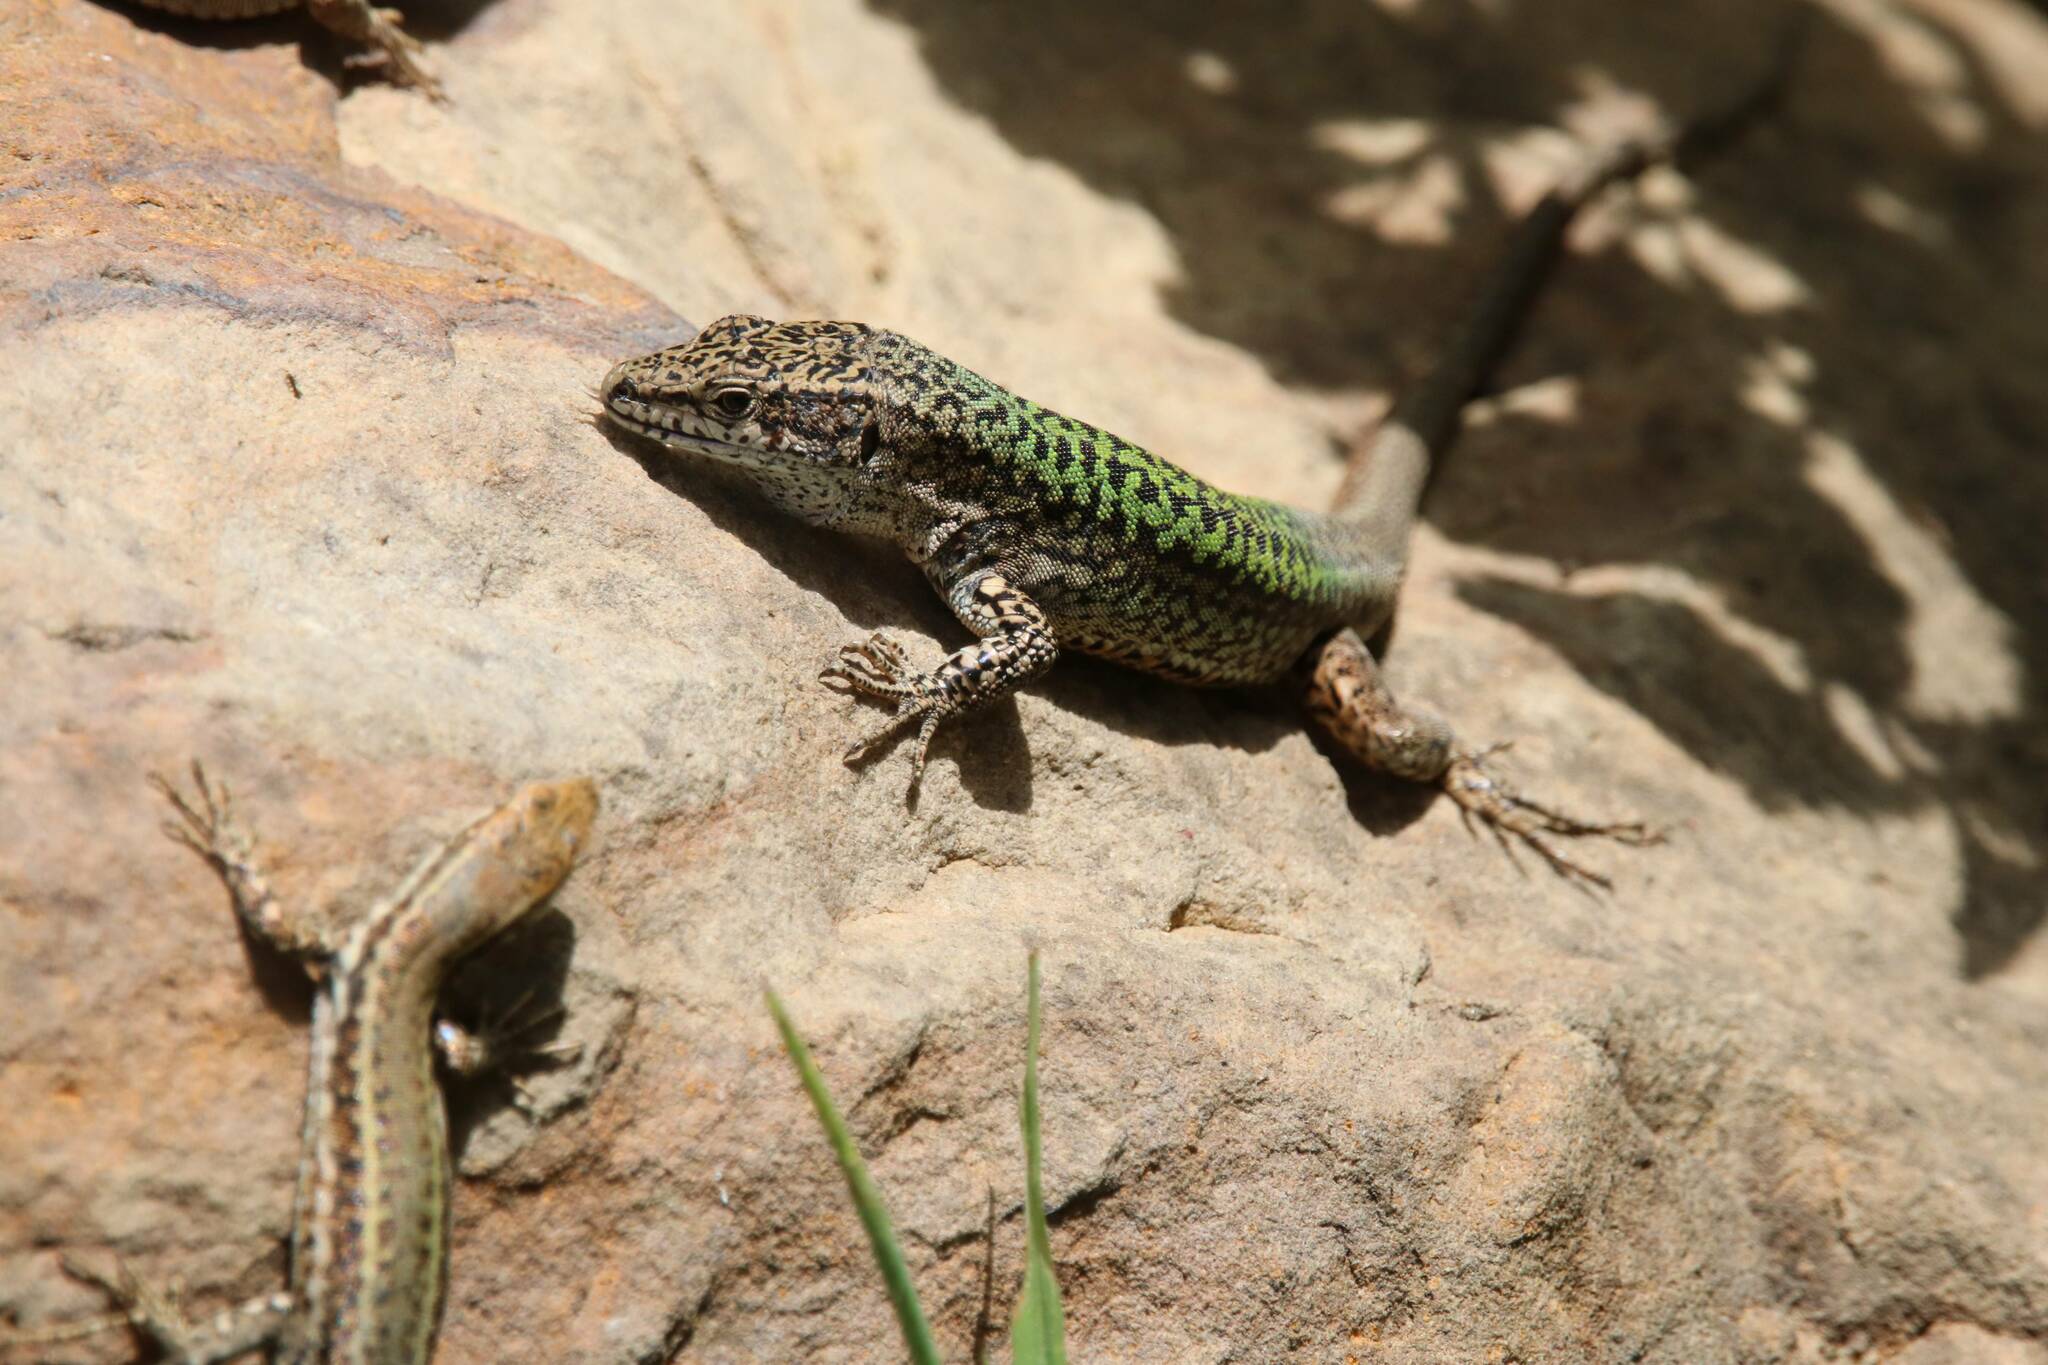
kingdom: Animalia
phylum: Chordata
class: Squamata
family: Lacertidae
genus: Podarcis
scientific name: Podarcis vaucheri
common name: Vaucher's wall lizard
